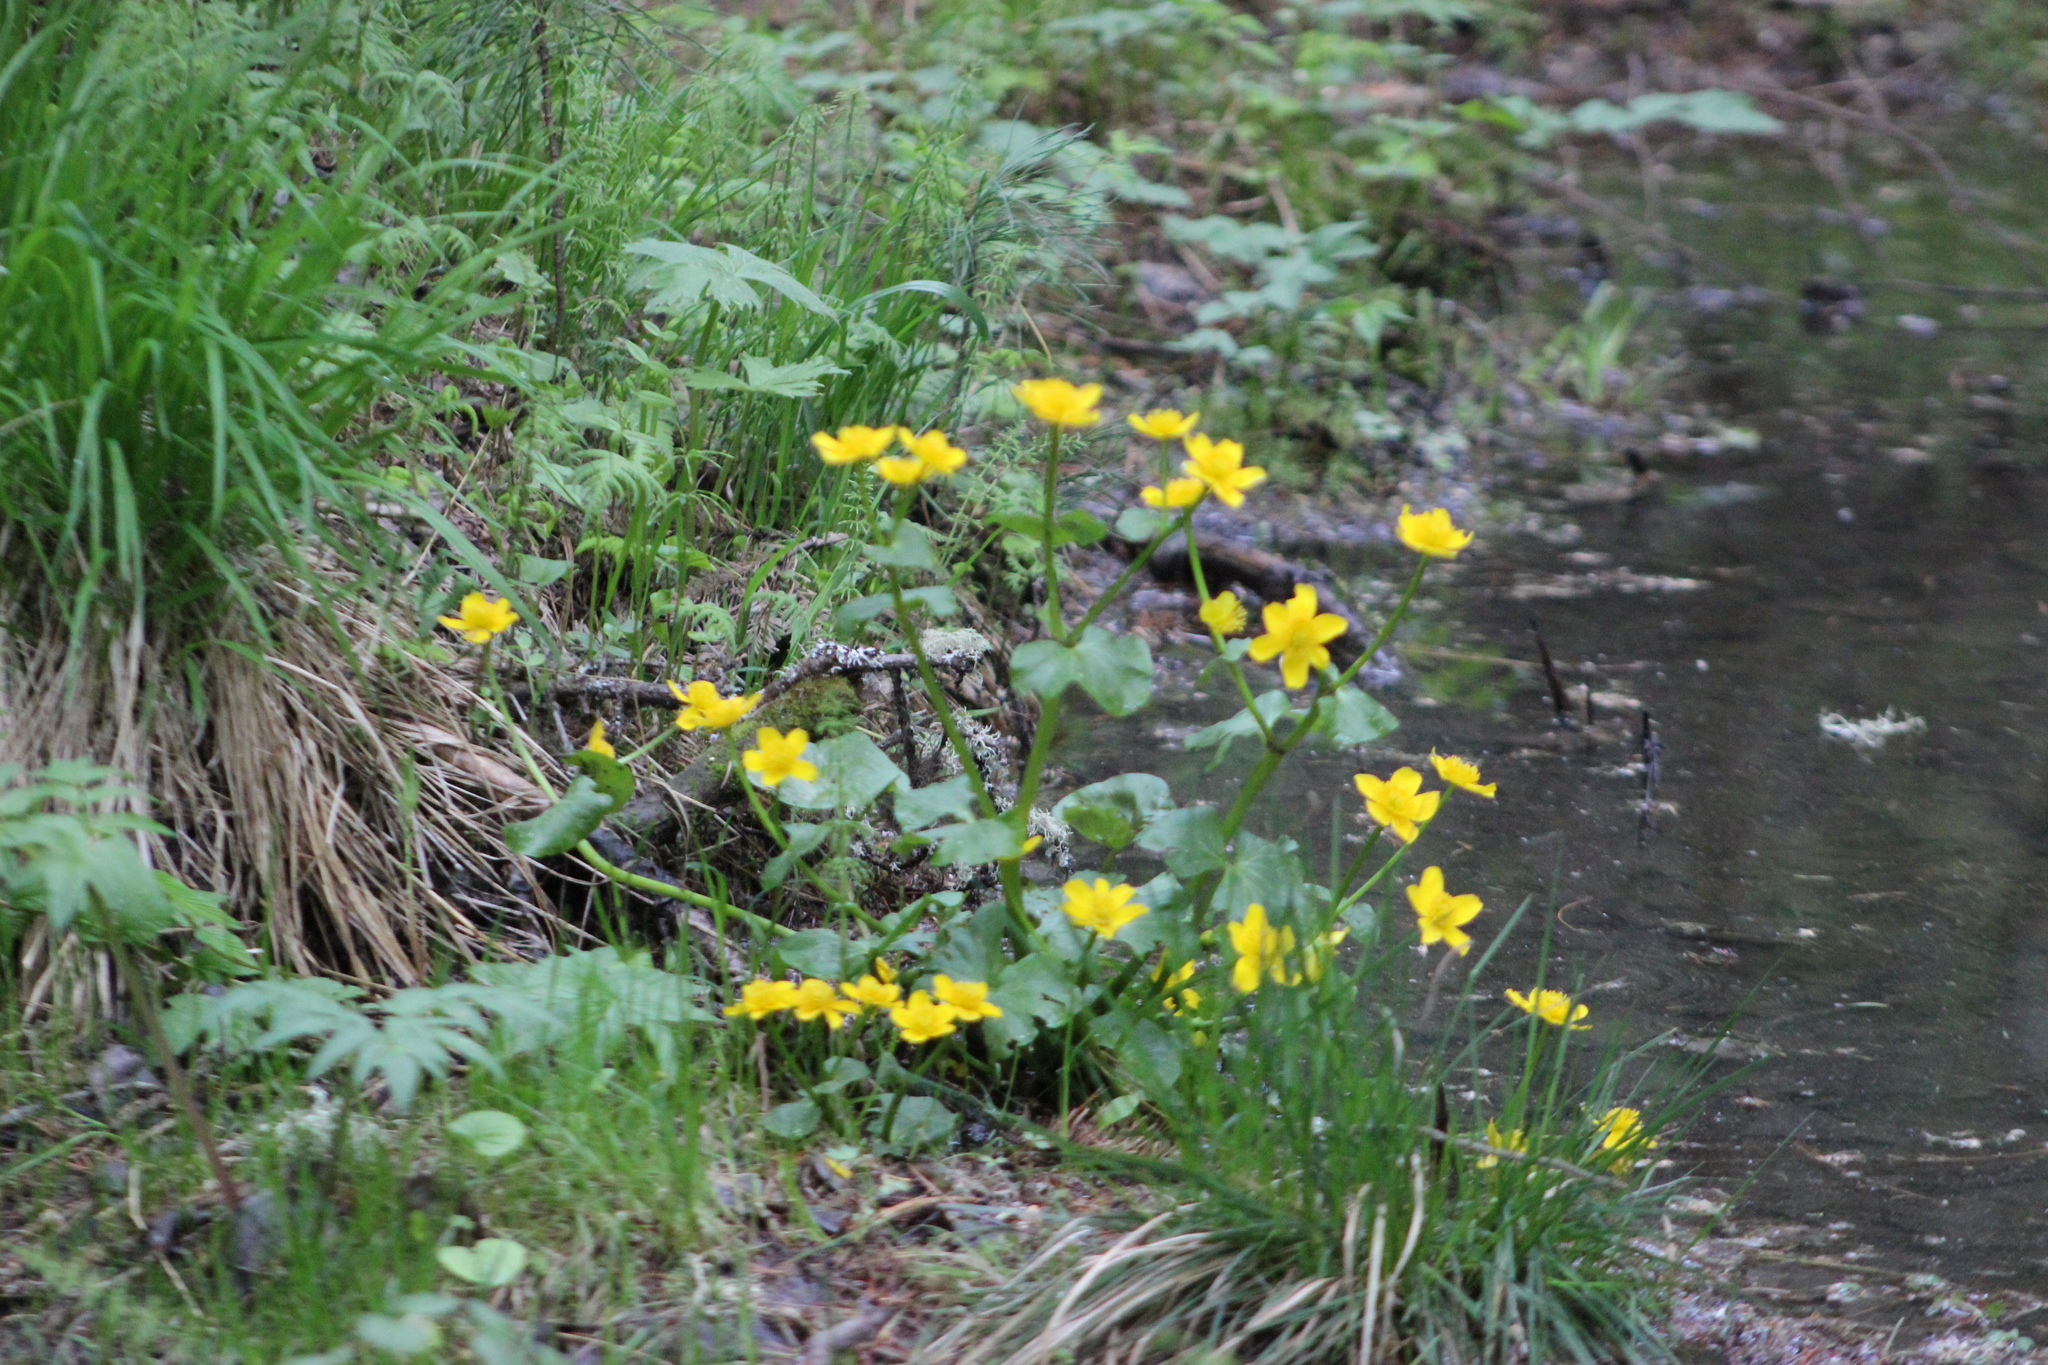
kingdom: Plantae
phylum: Tracheophyta
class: Magnoliopsida
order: Ranunculales
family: Ranunculaceae
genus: Caltha
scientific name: Caltha palustris
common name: Marsh marigold
